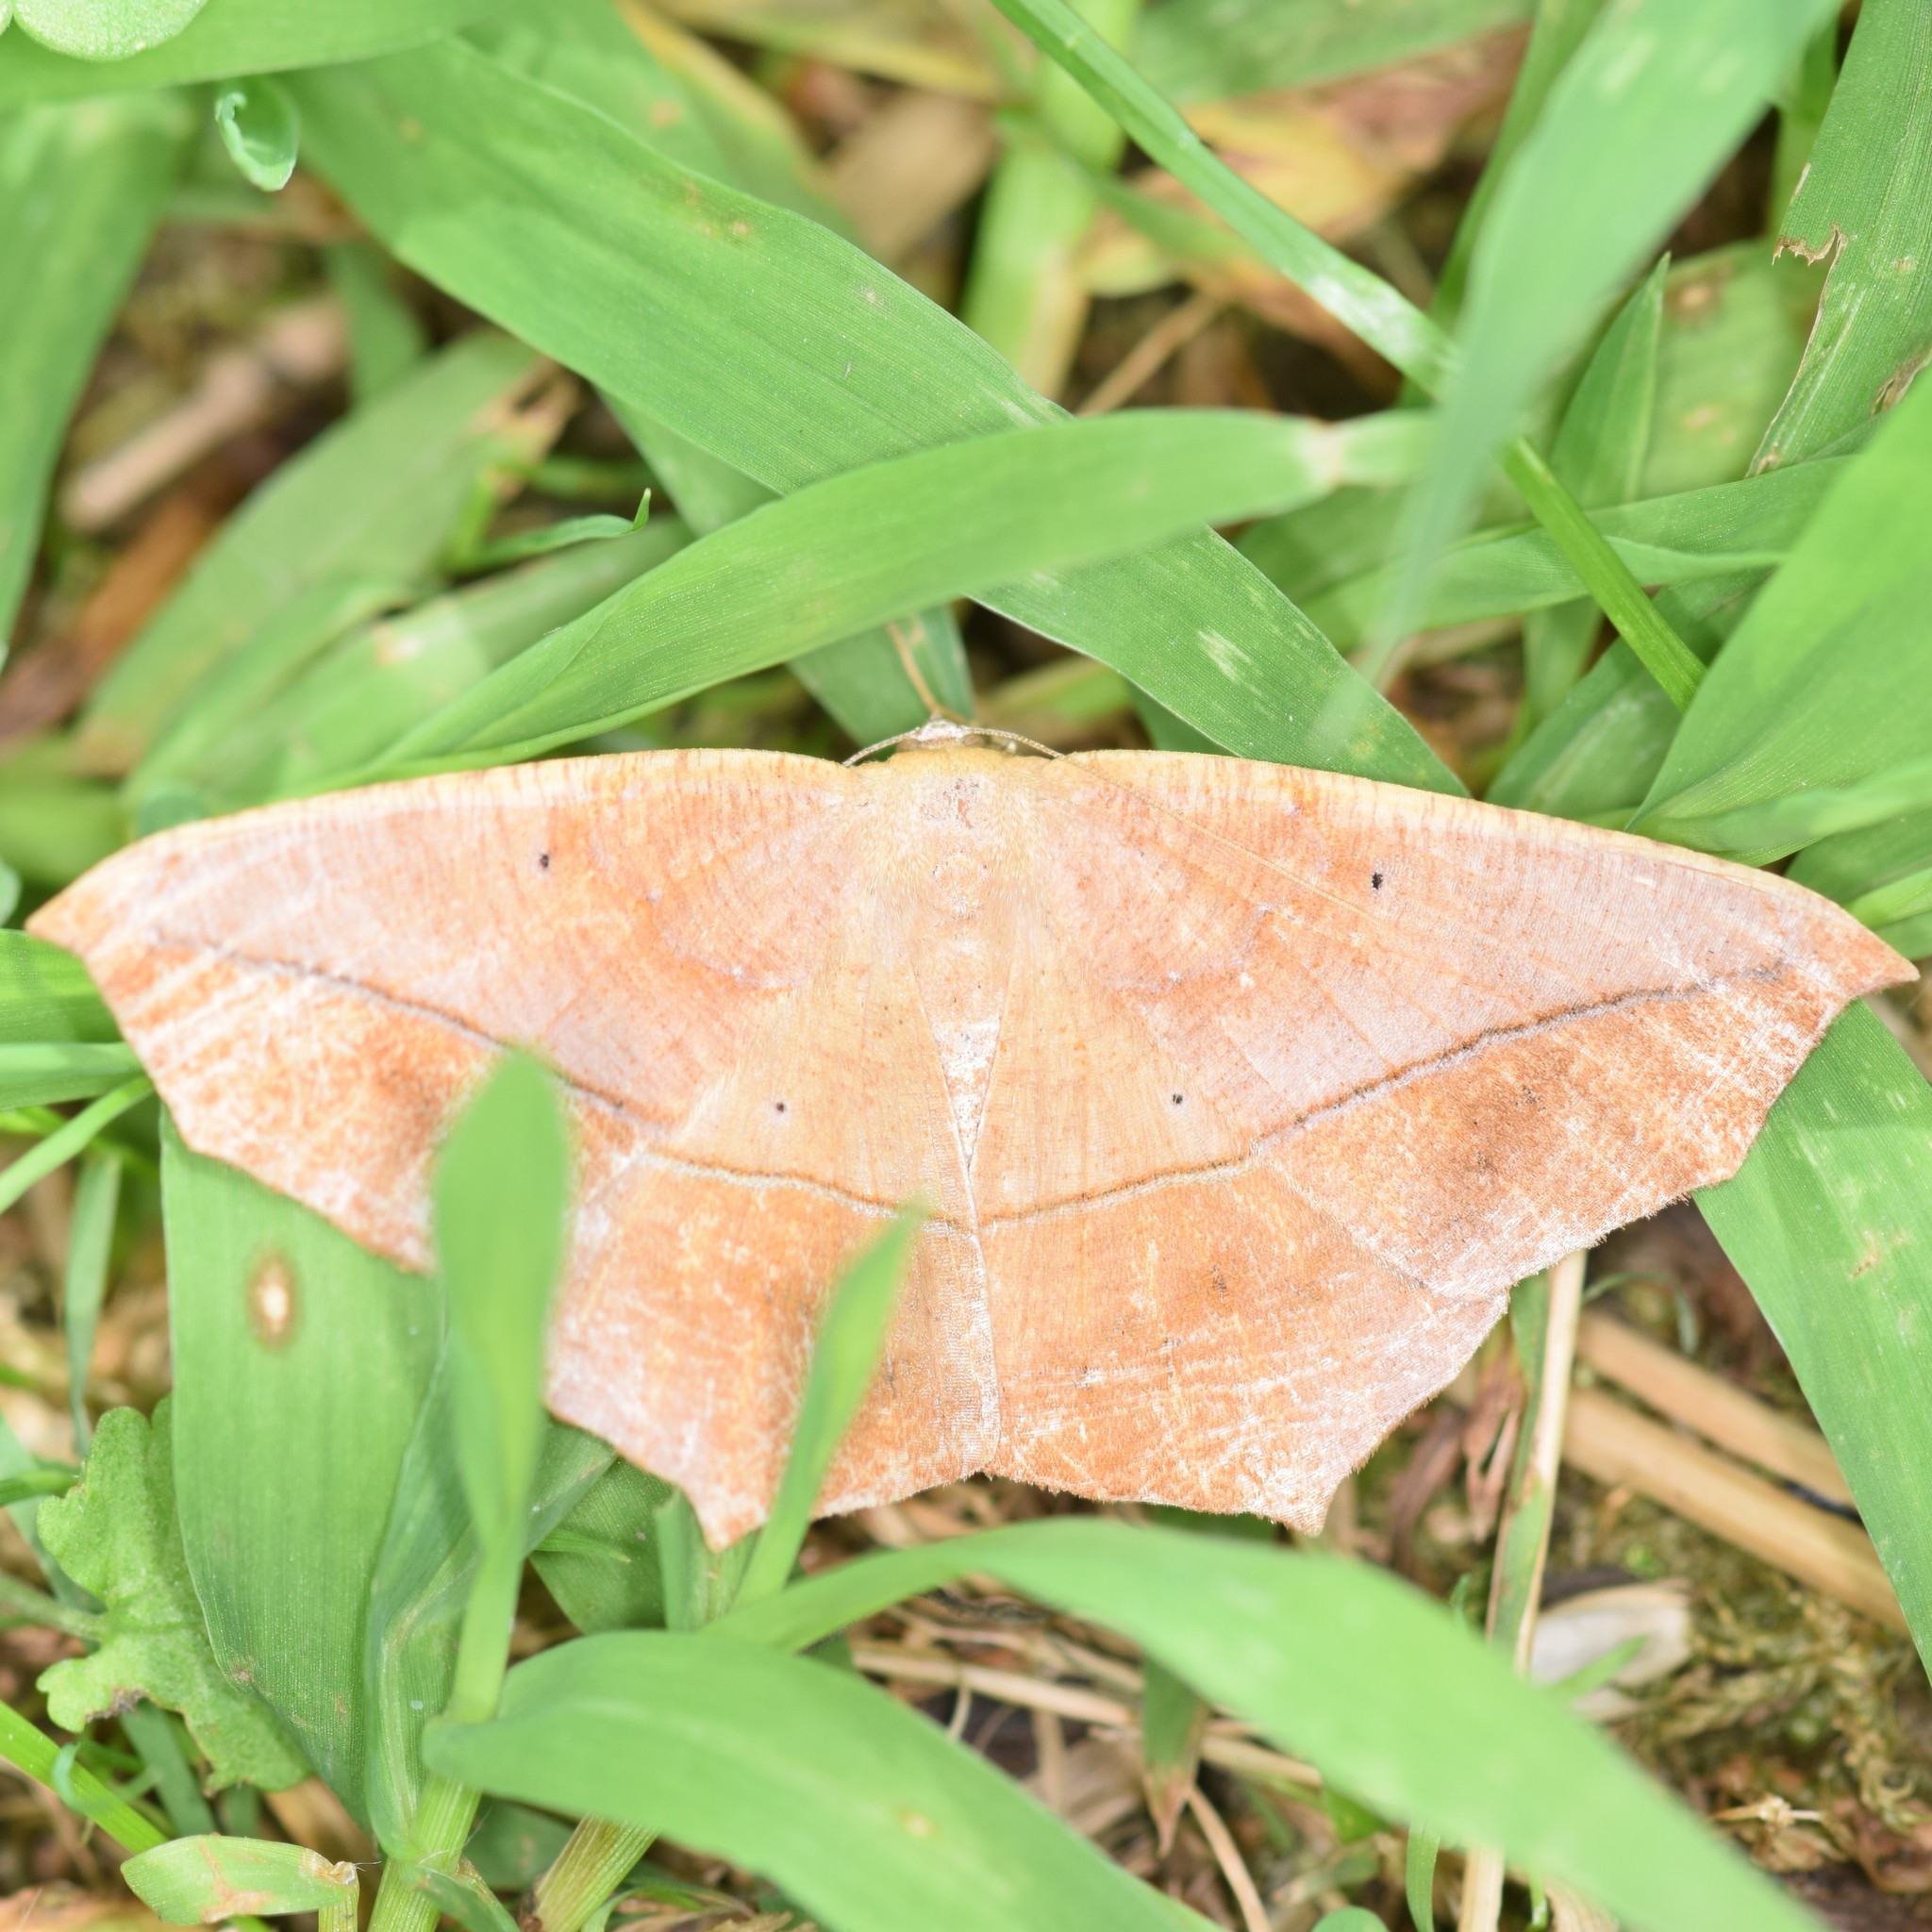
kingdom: Animalia
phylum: Arthropoda
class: Insecta
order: Lepidoptera
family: Geometridae
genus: Prochoerodes
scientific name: Prochoerodes lineola
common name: Large maple spanworm
